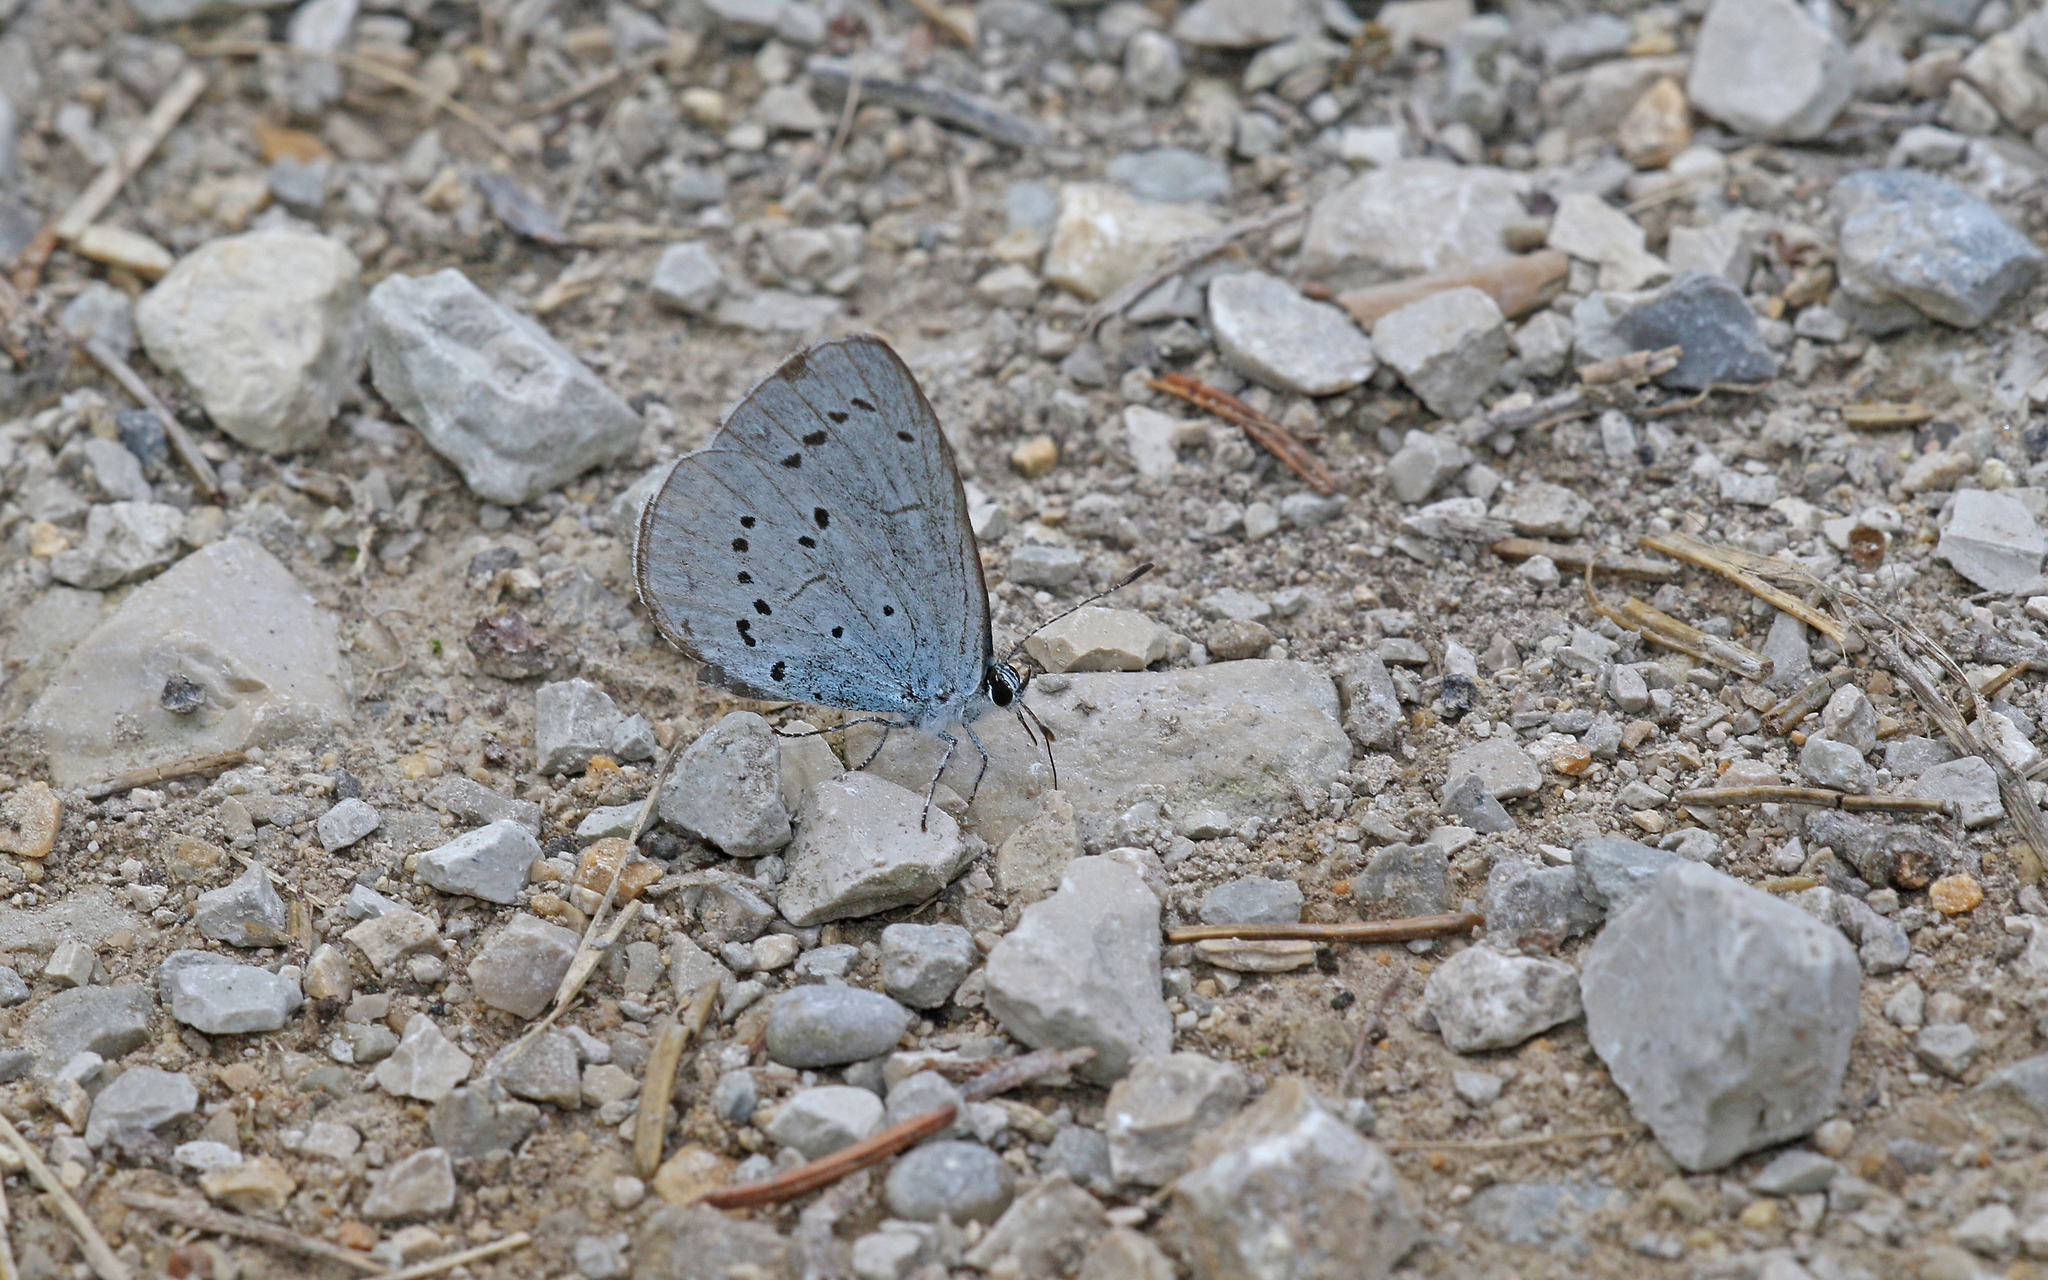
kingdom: Animalia
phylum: Arthropoda
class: Insecta
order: Lepidoptera
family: Lycaenidae
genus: Celastrina
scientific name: Celastrina argiolus
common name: Holly blue
